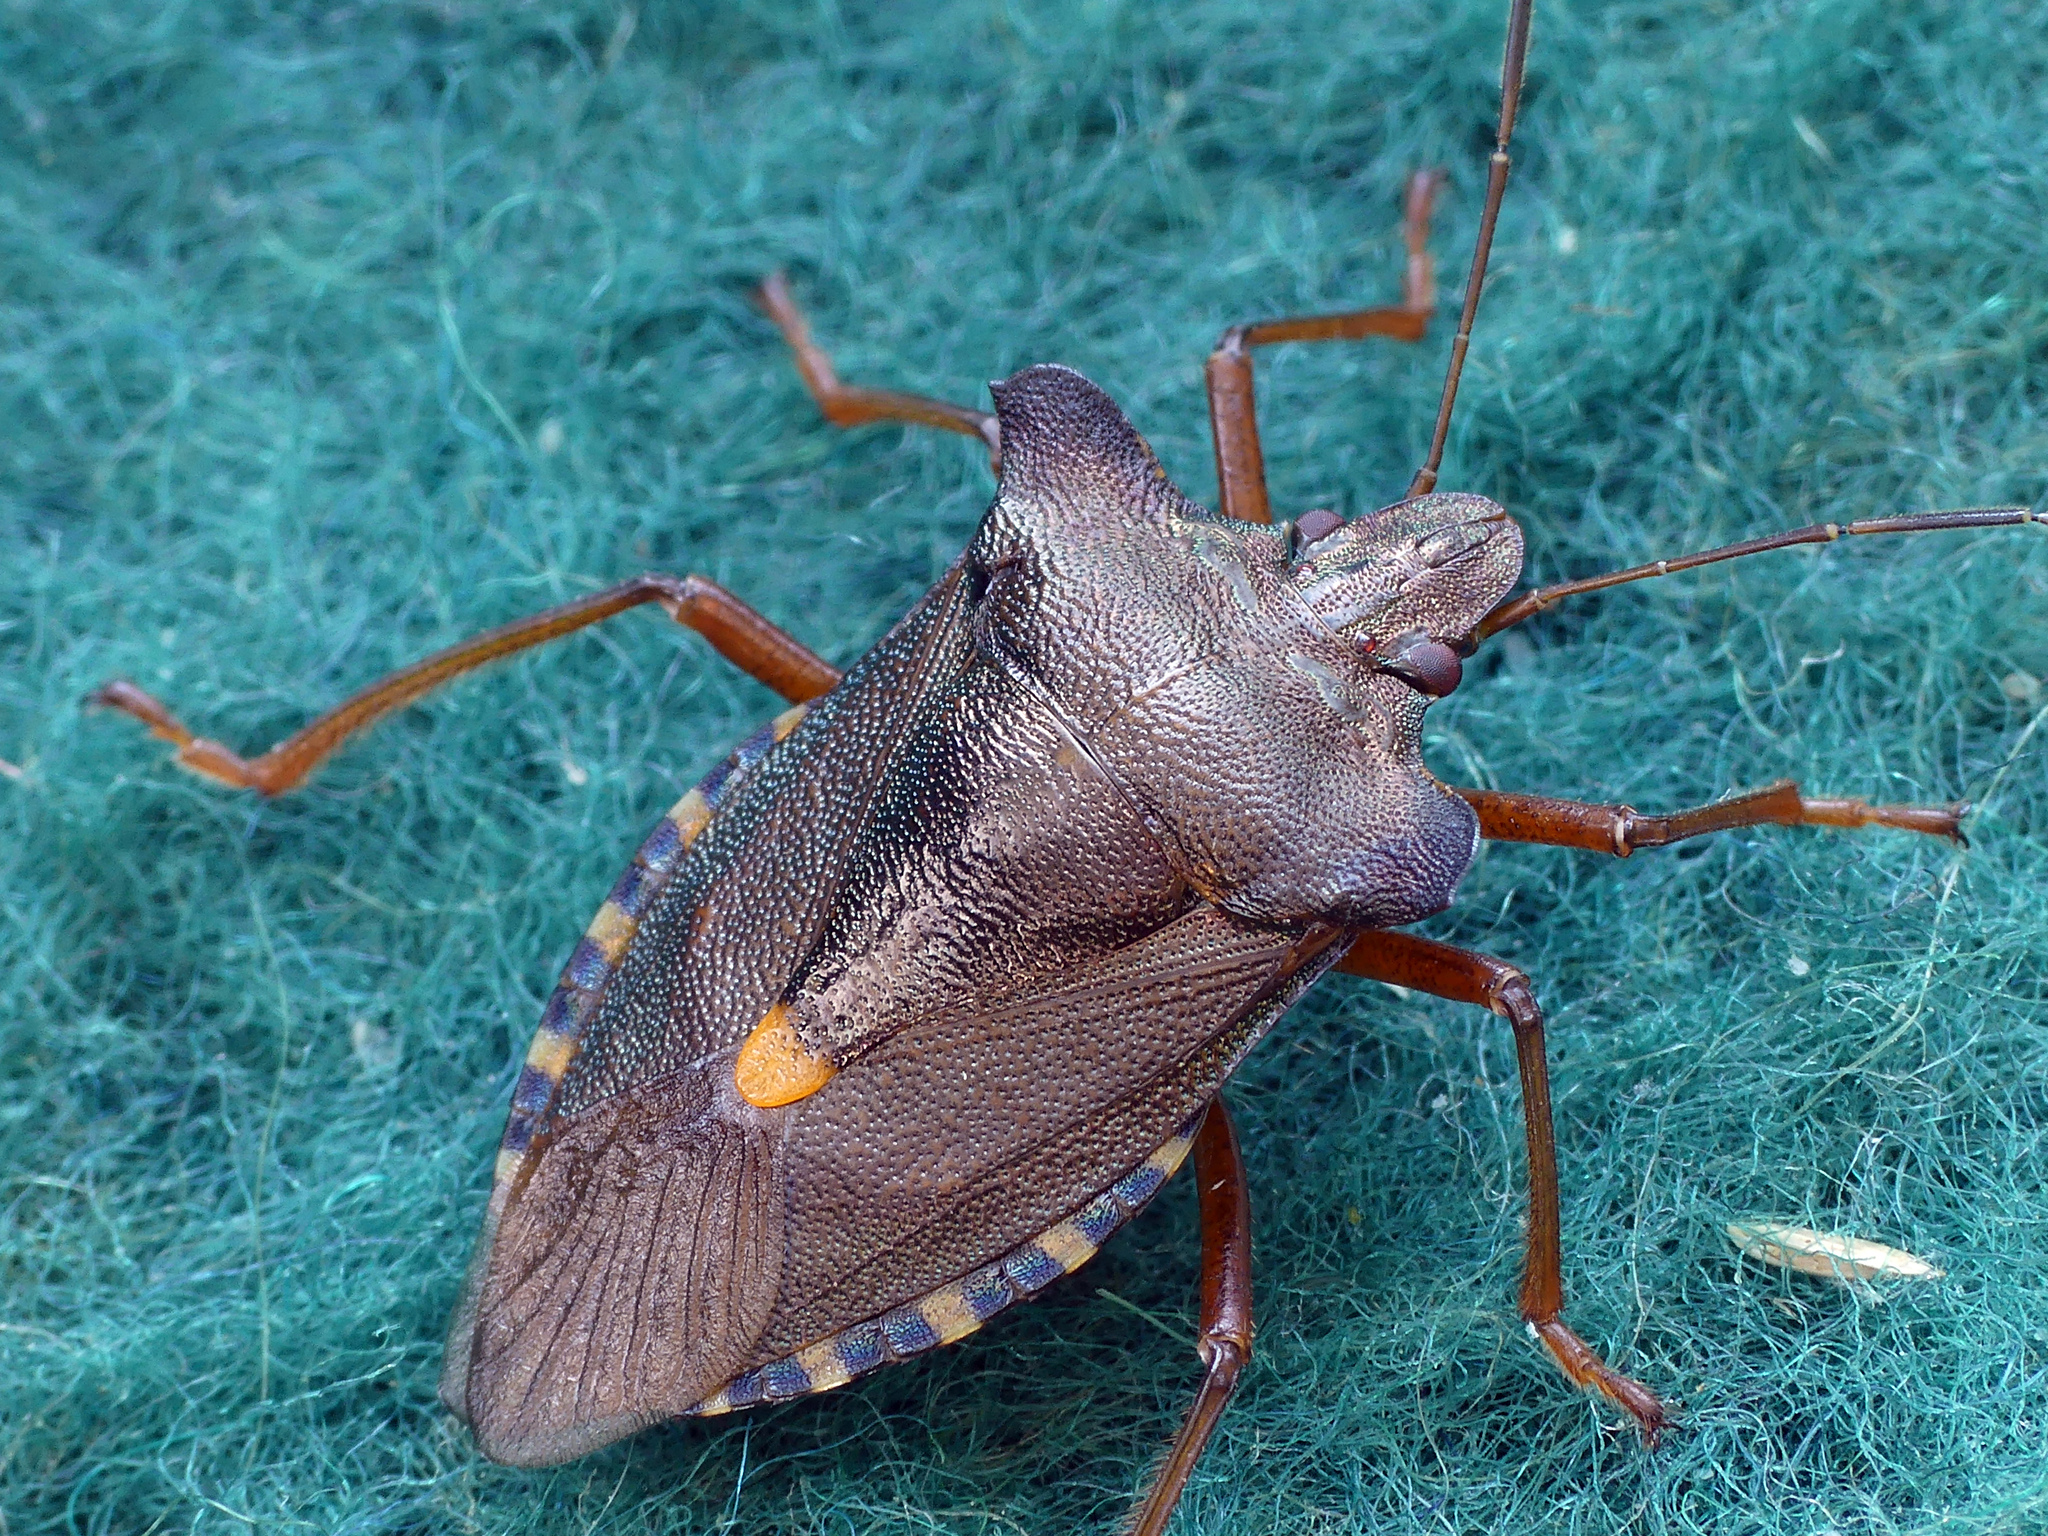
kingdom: Animalia
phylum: Arthropoda
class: Insecta
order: Hemiptera
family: Pentatomidae
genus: Pentatoma
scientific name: Pentatoma rufipes
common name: Forest bug
